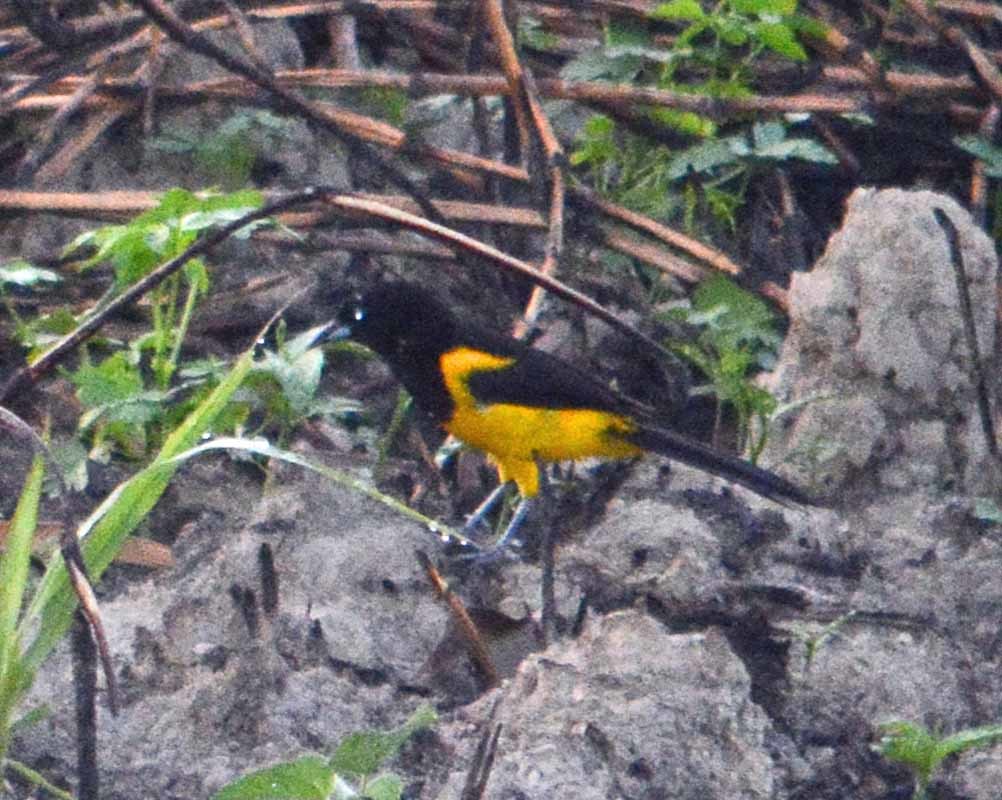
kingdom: Animalia
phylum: Chordata
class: Aves
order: Passeriformes
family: Icteridae
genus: Icterus
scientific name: Icterus prosthemelas
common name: Black-cowled oriole
